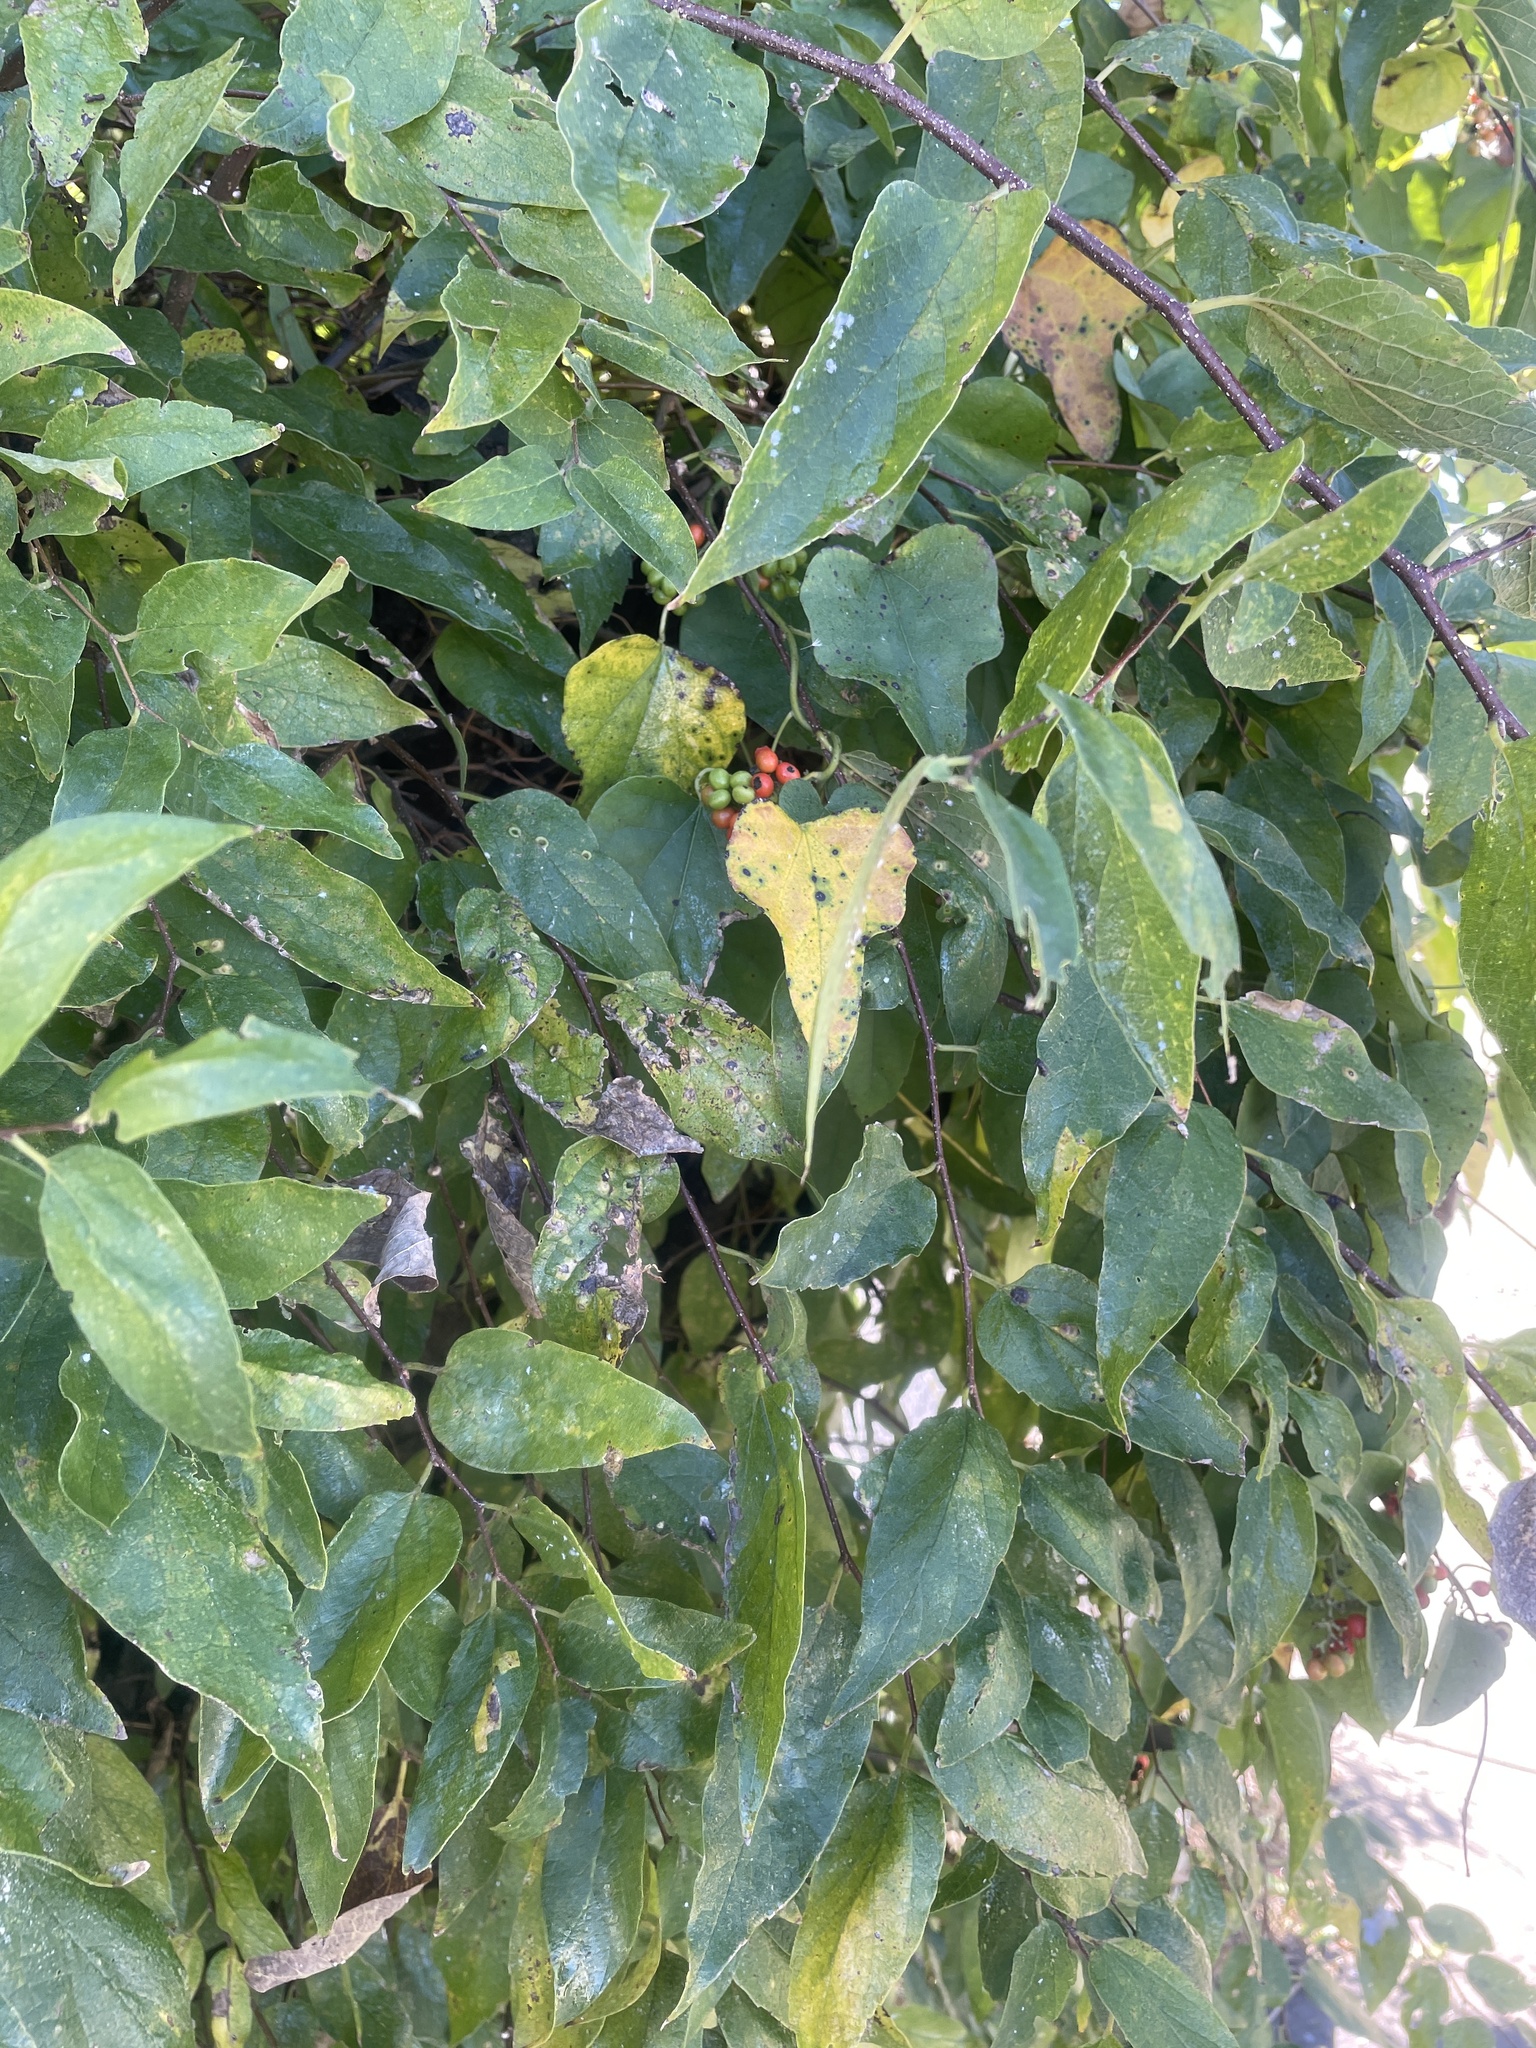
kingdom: Plantae
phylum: Tracheophyta
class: Magnoliopsida
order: Ranunculales
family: Menispermaceae
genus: Cocculus
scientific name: Cocculus carolinus
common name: Carolina moonseed
